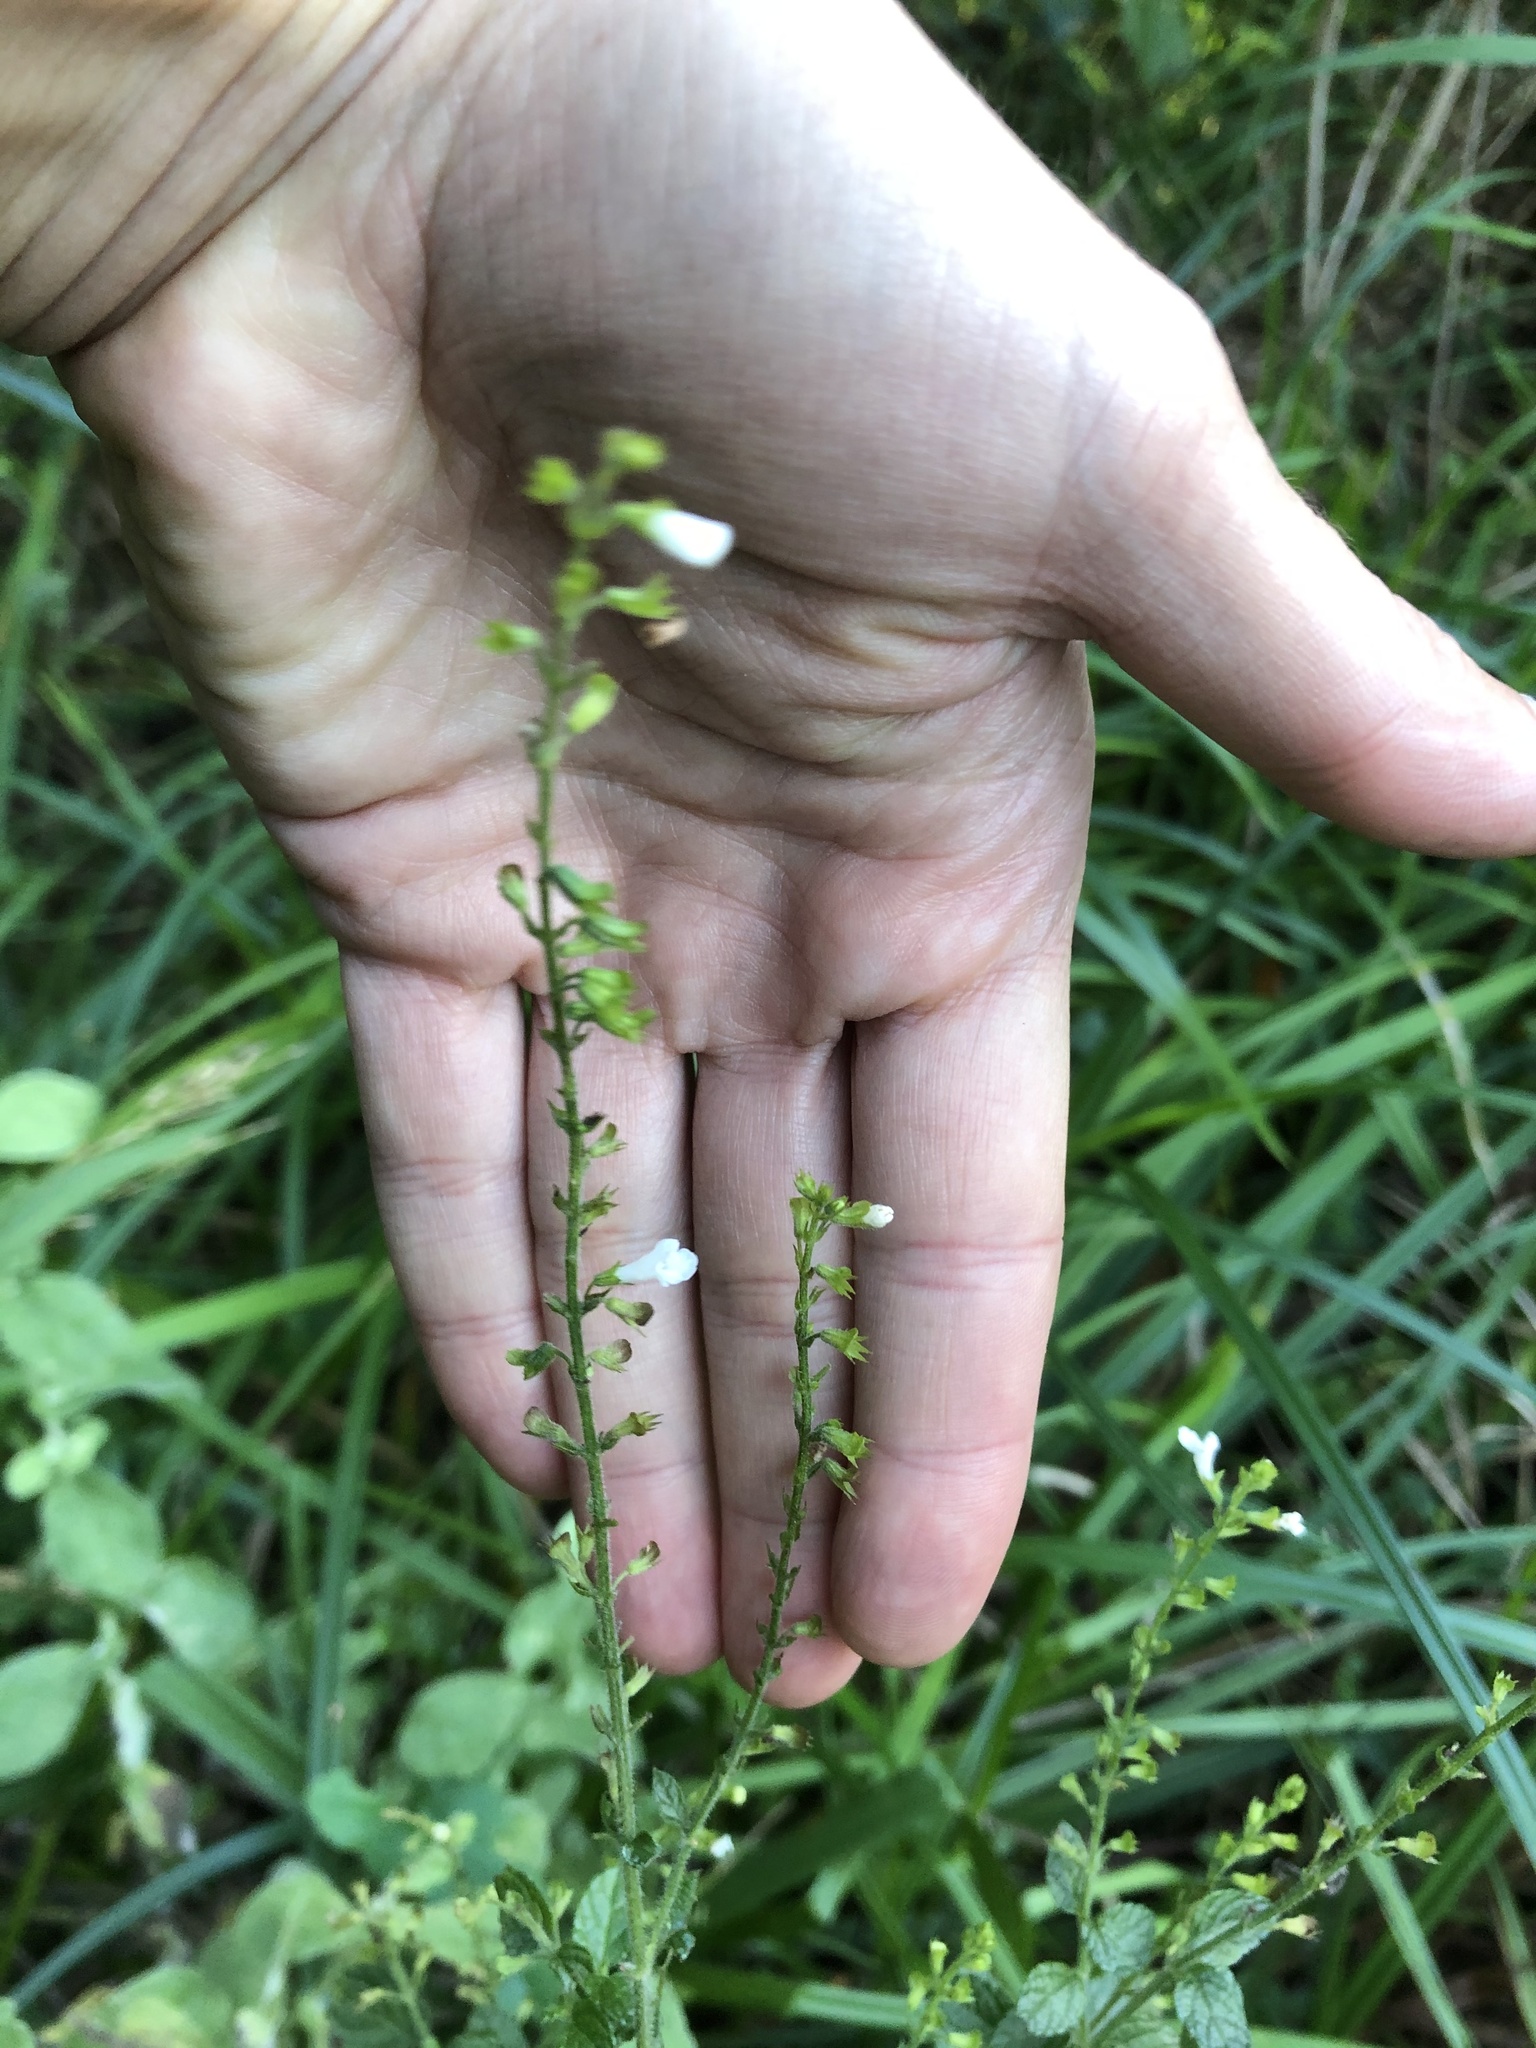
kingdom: Plantae
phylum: Tracheophyta
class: Magnoliopsida
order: Lamiales
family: Lamiaceae
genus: Endostemon
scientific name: Endostemon obtusifolius
